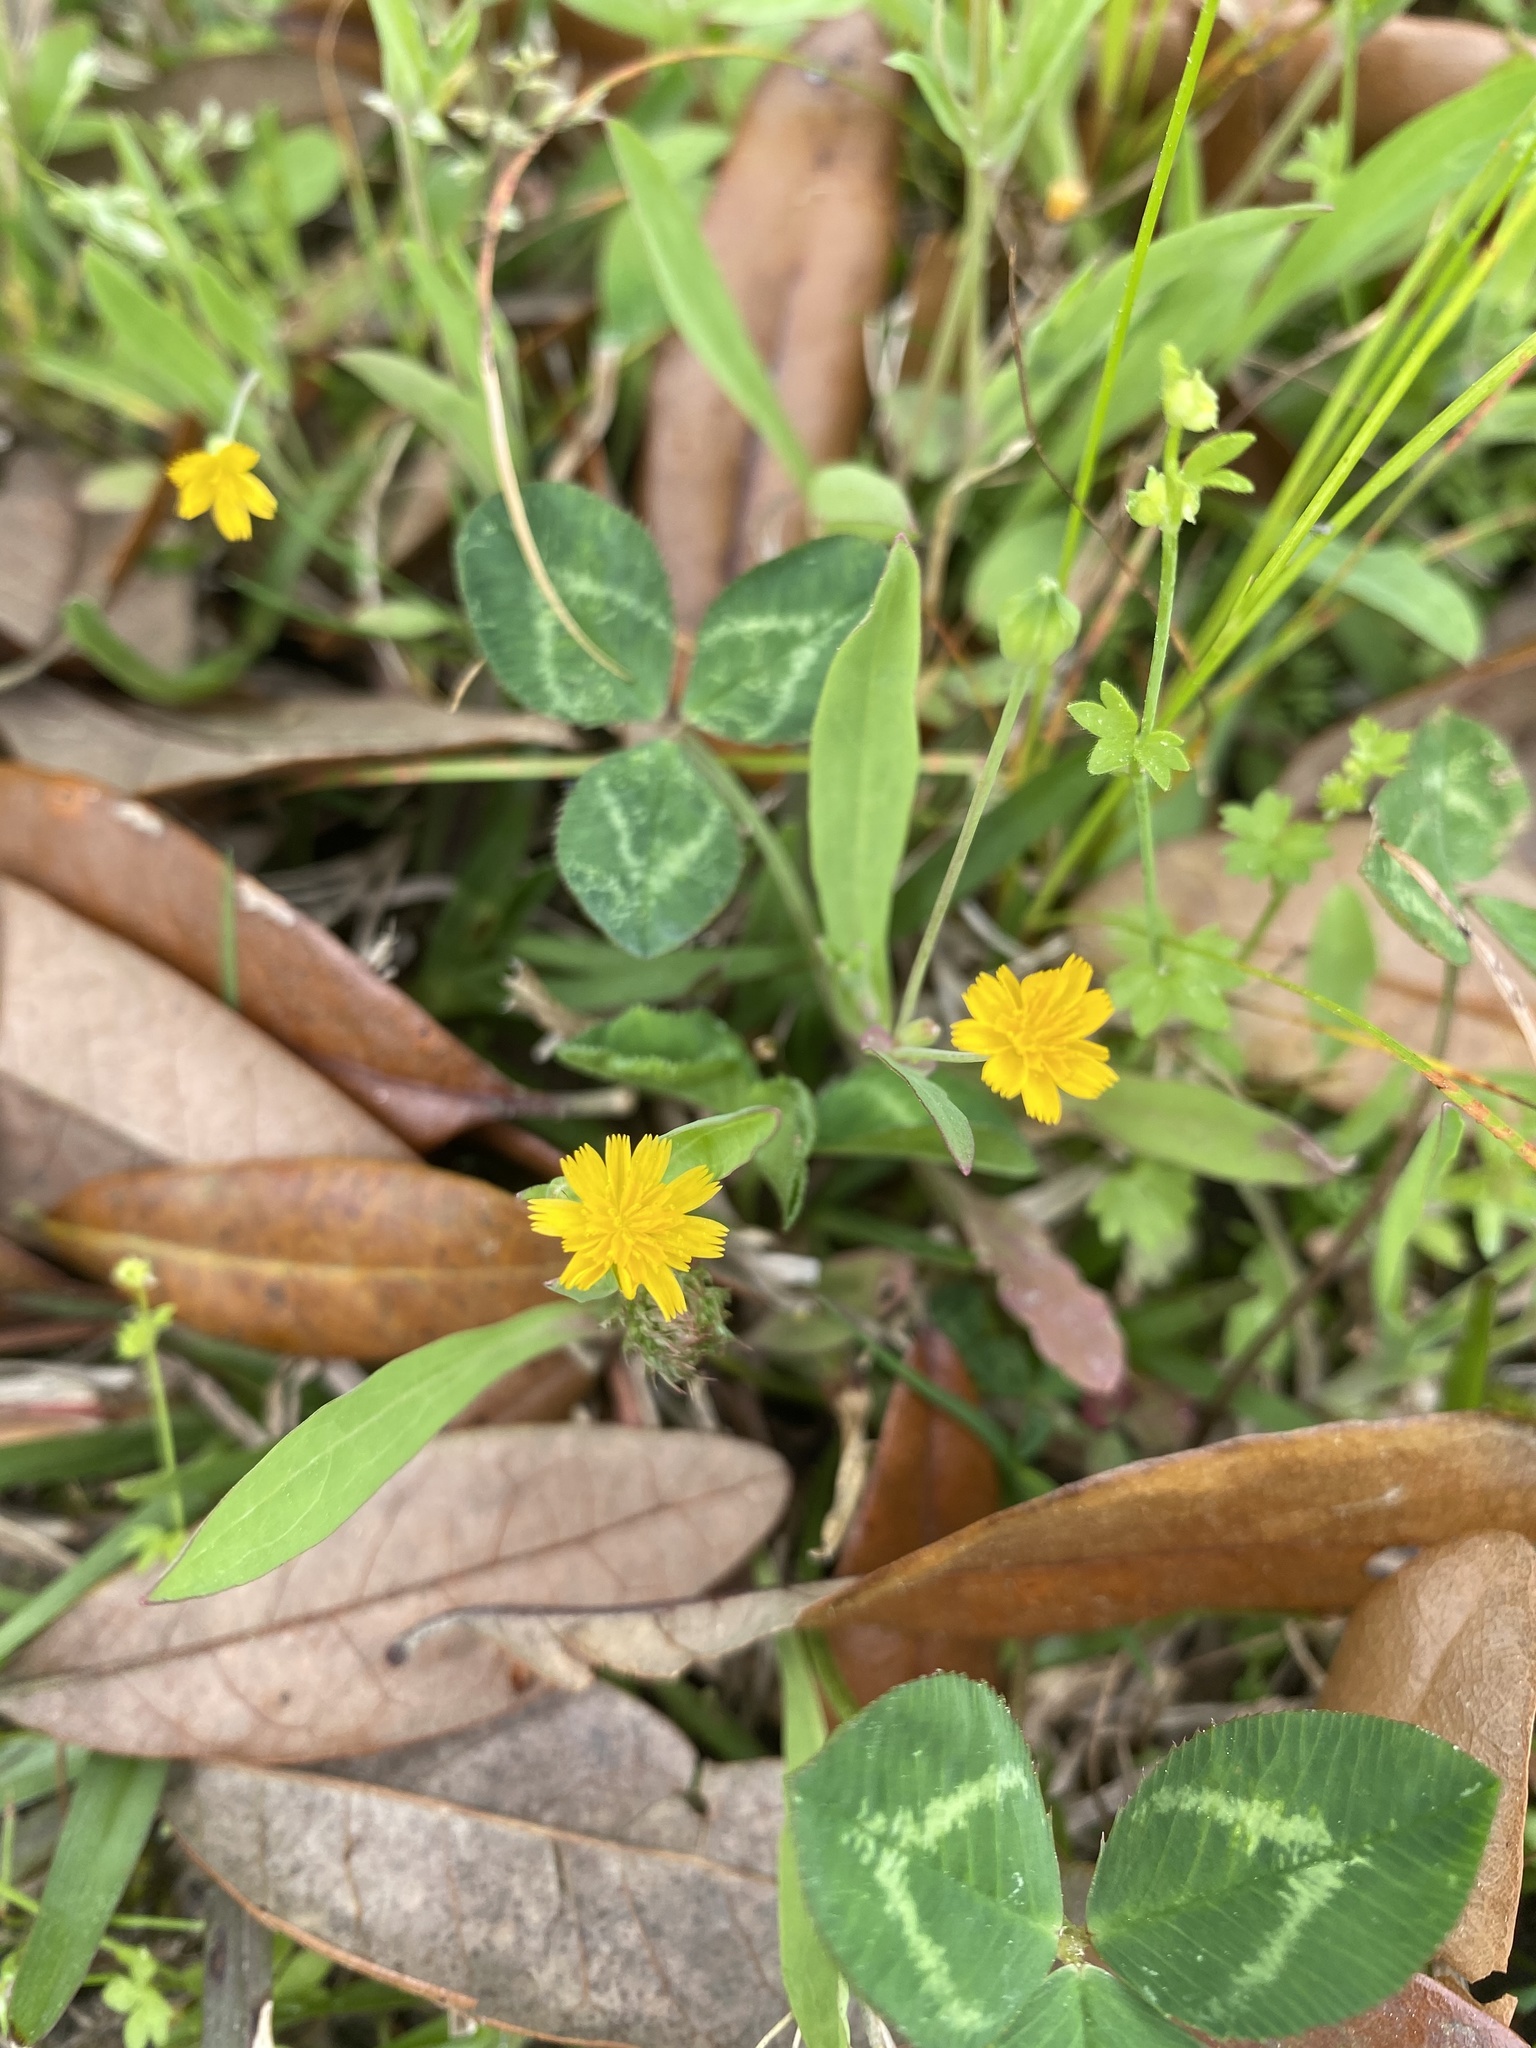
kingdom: Plantae
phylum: Tracheophyta
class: Magnoliopsida
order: Asterales
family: Asteraceae
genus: Krigia
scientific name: Krigia cespitosa
